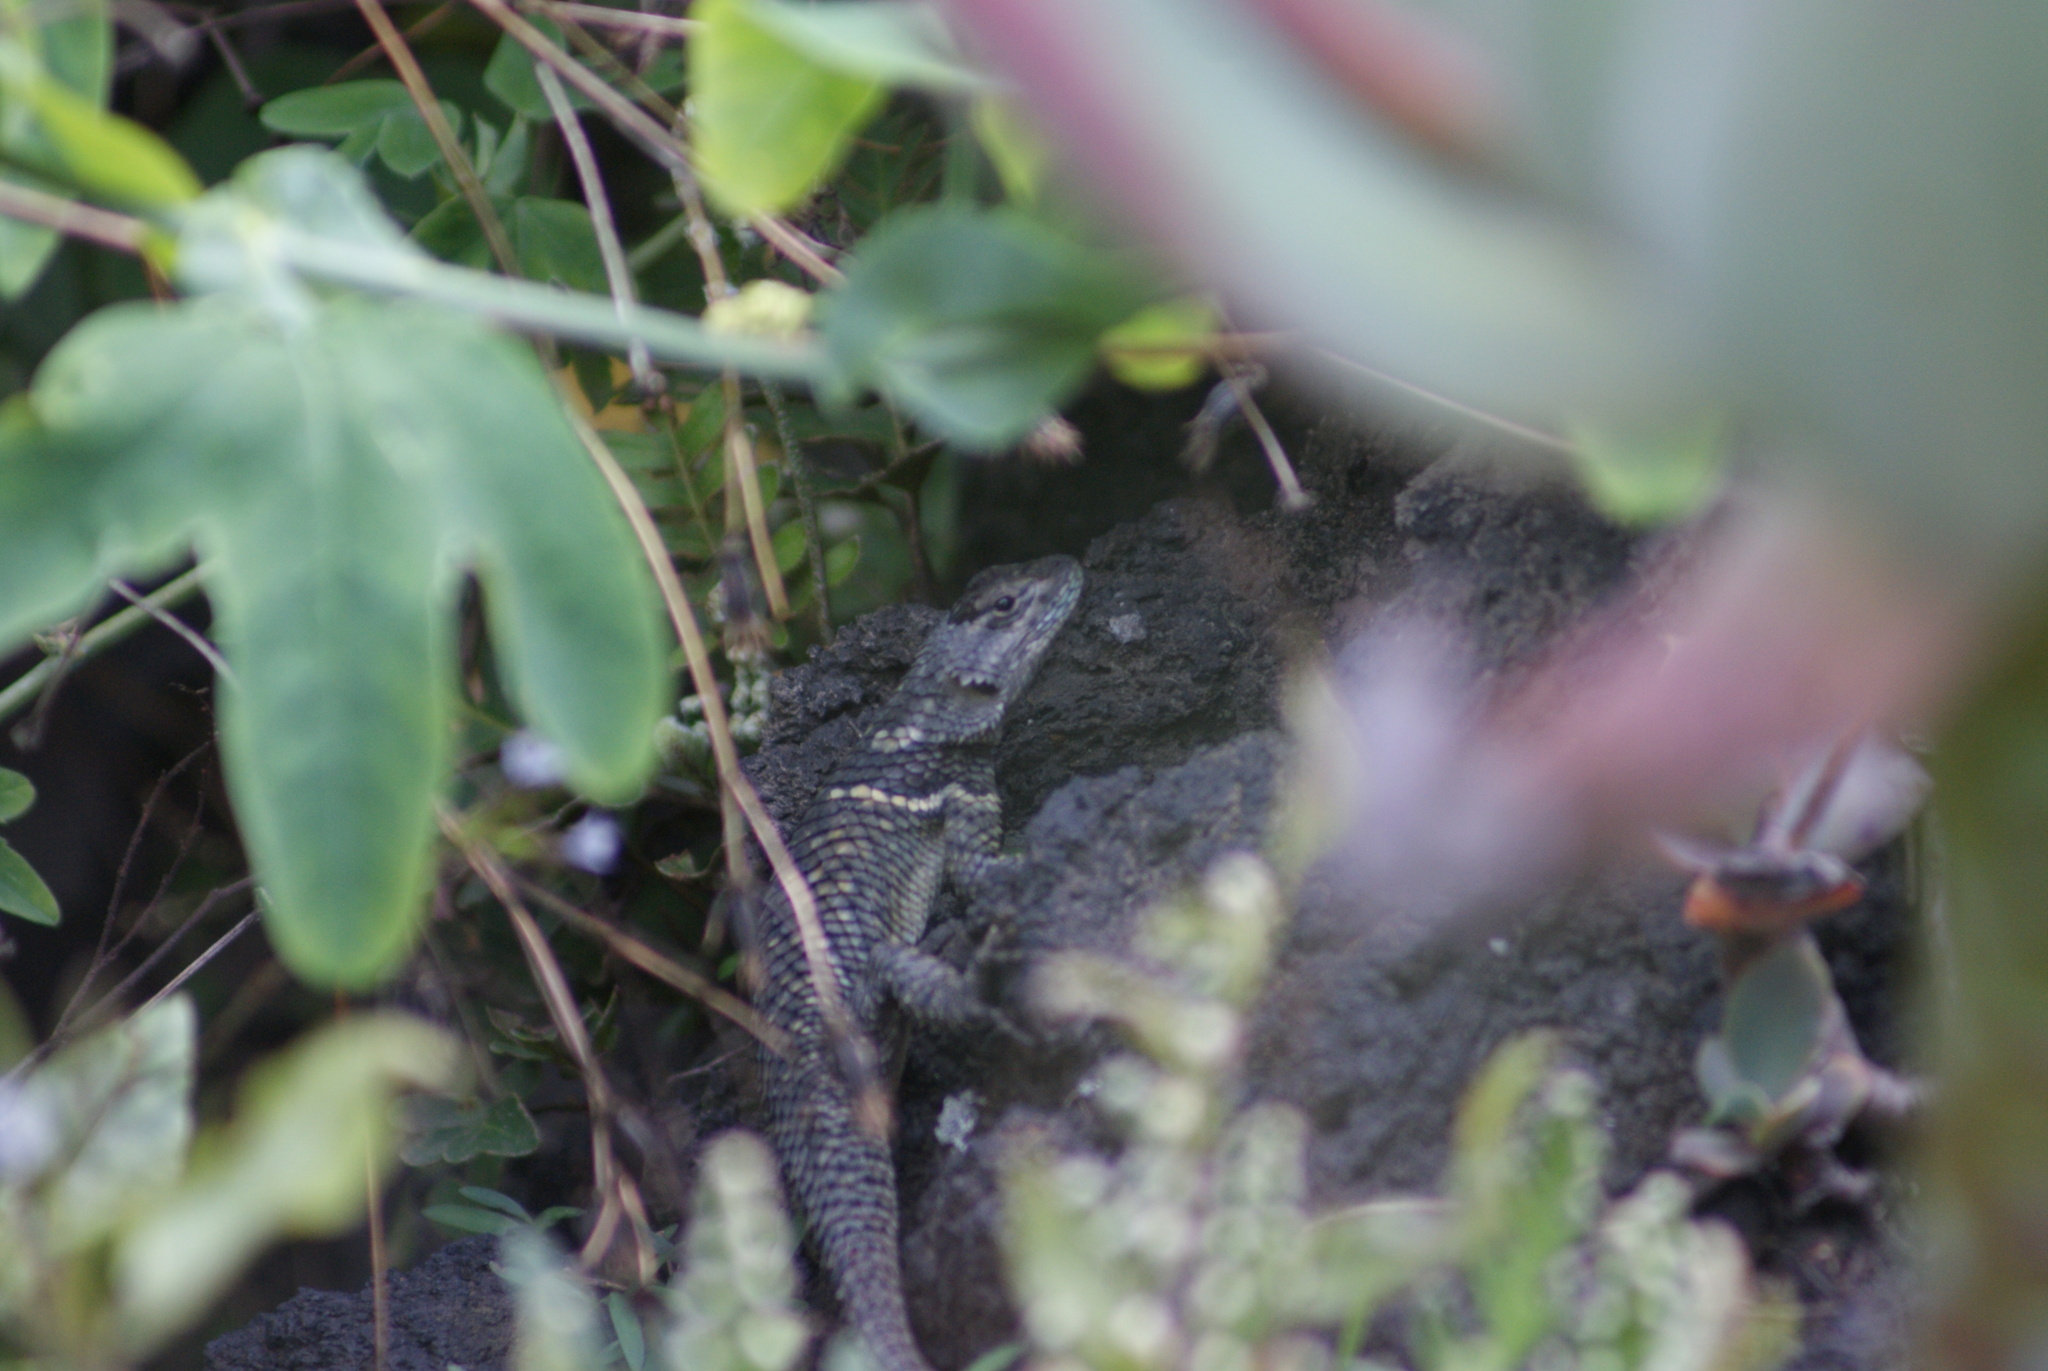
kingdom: Animalia
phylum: Chordata
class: Squamata
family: Phrynosomatidae
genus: Sceloporus
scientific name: Sceloporus torquatus
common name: Central plateau torquate lizard [melanogaster]
